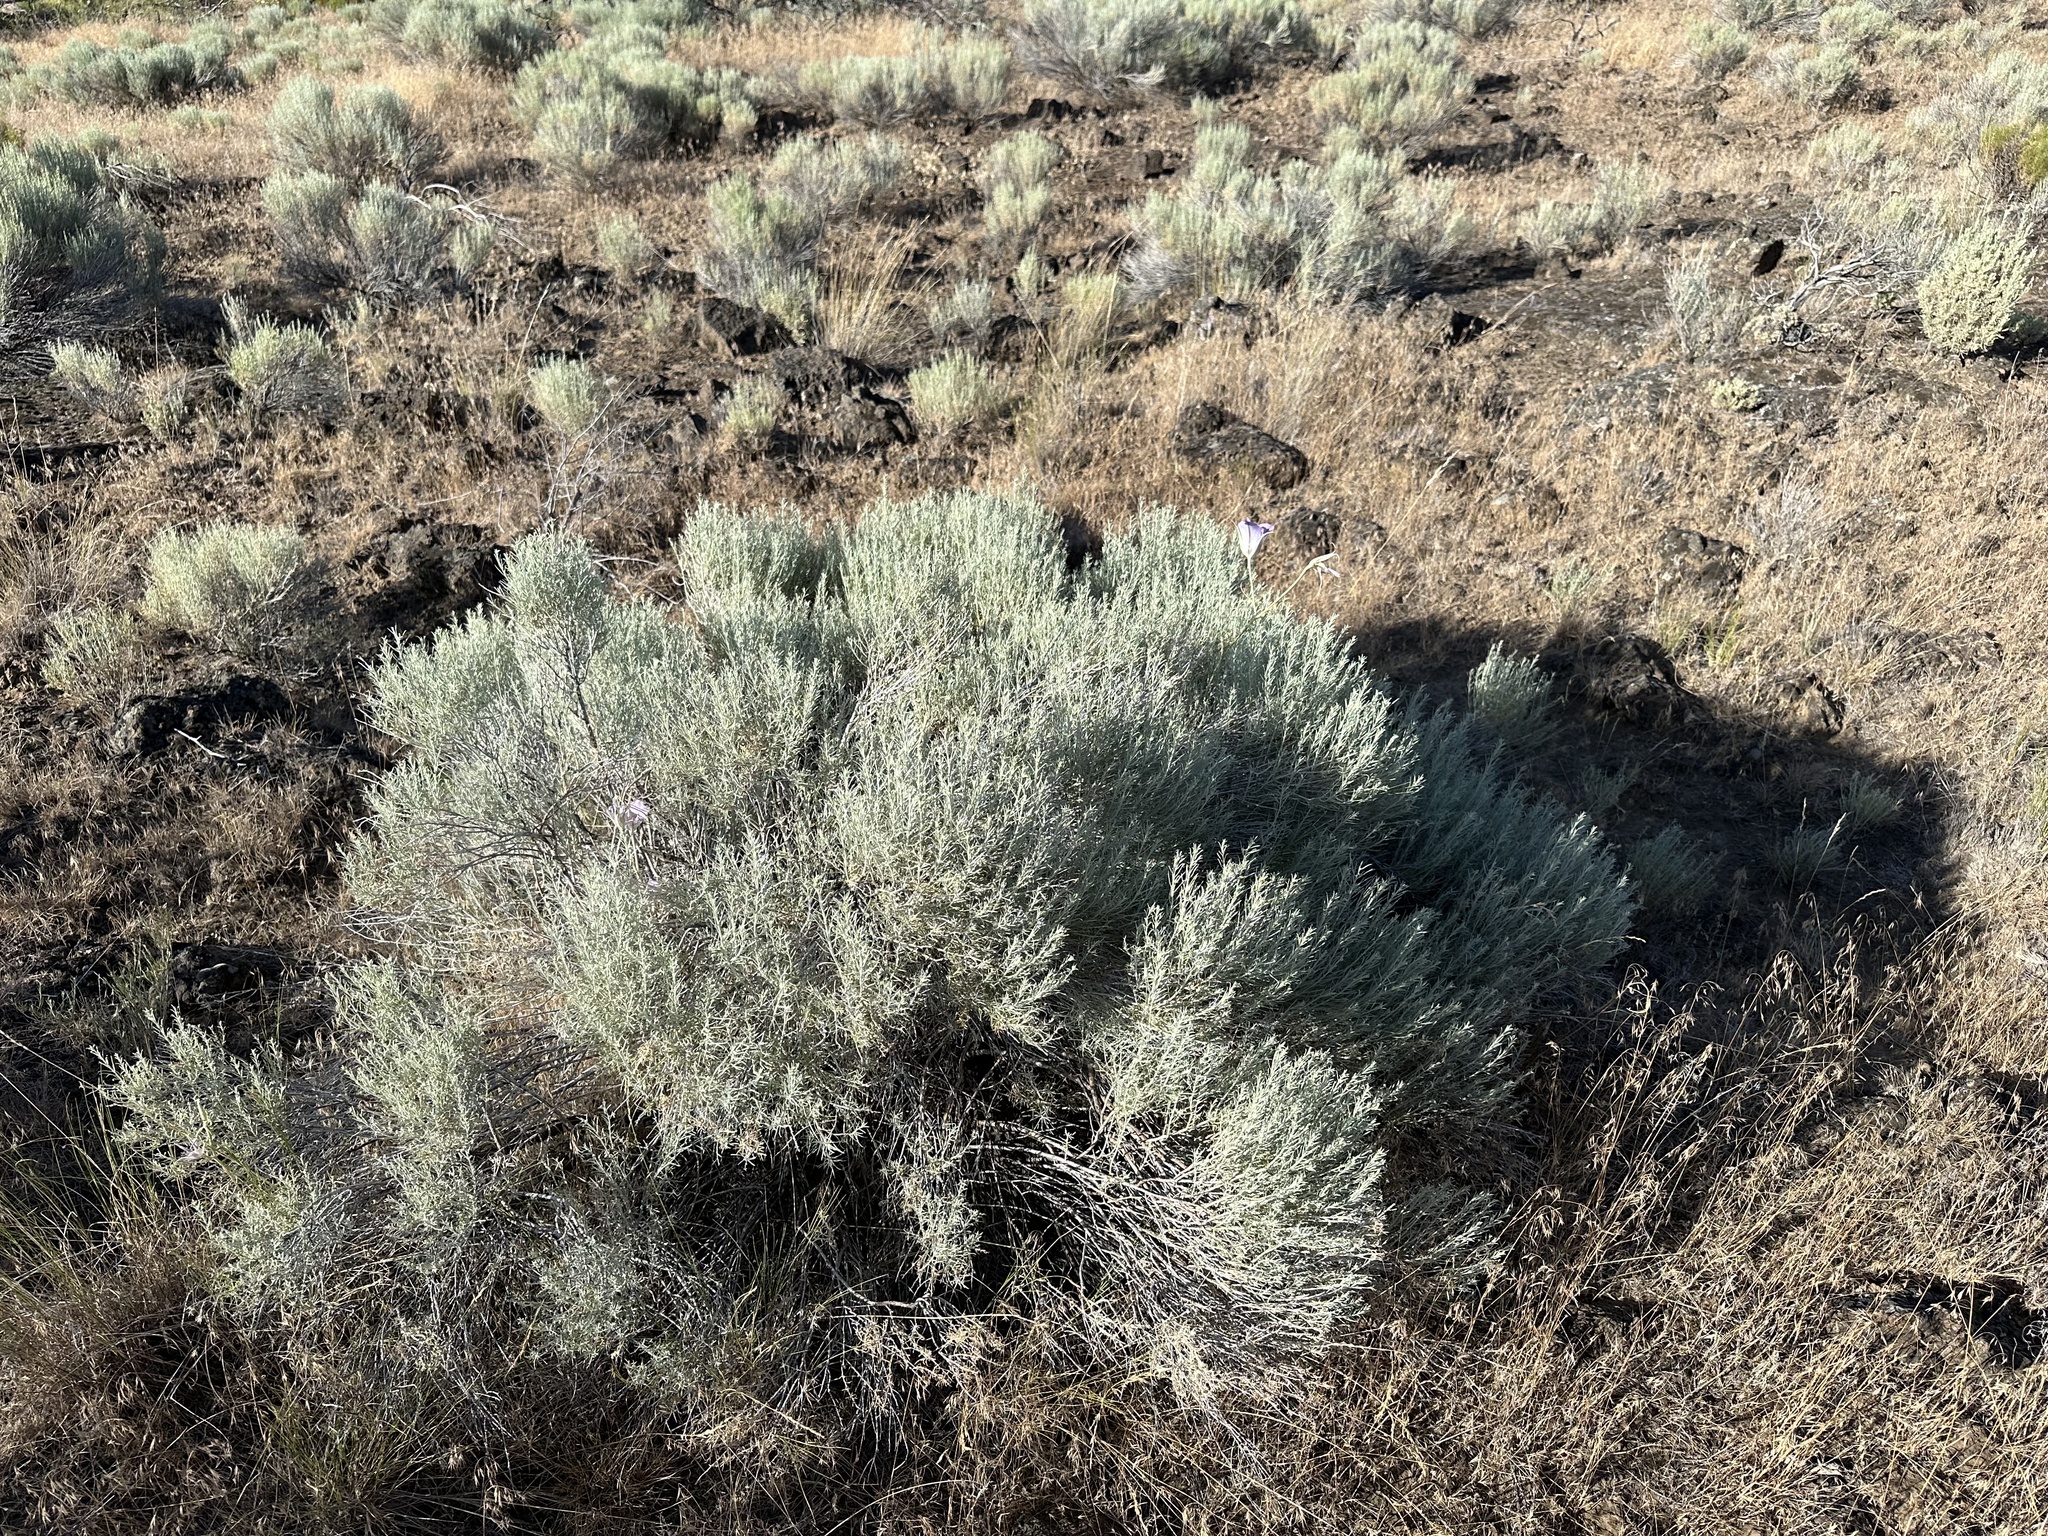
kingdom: Plantae
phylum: Tracheophyta
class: Liliopsida
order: Liliales
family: Liliaceae
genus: Calochortus
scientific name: Calochortus macrocarpus
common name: Green-band mariposa lily
